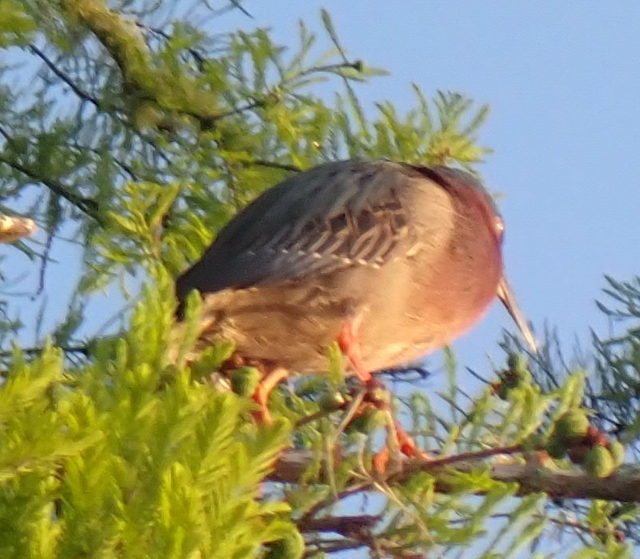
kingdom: Animalia
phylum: Chordata
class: Aves
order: Pelecaniformes
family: Ardeidae
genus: Butorides
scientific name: Butorides virescens
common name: Green heron
